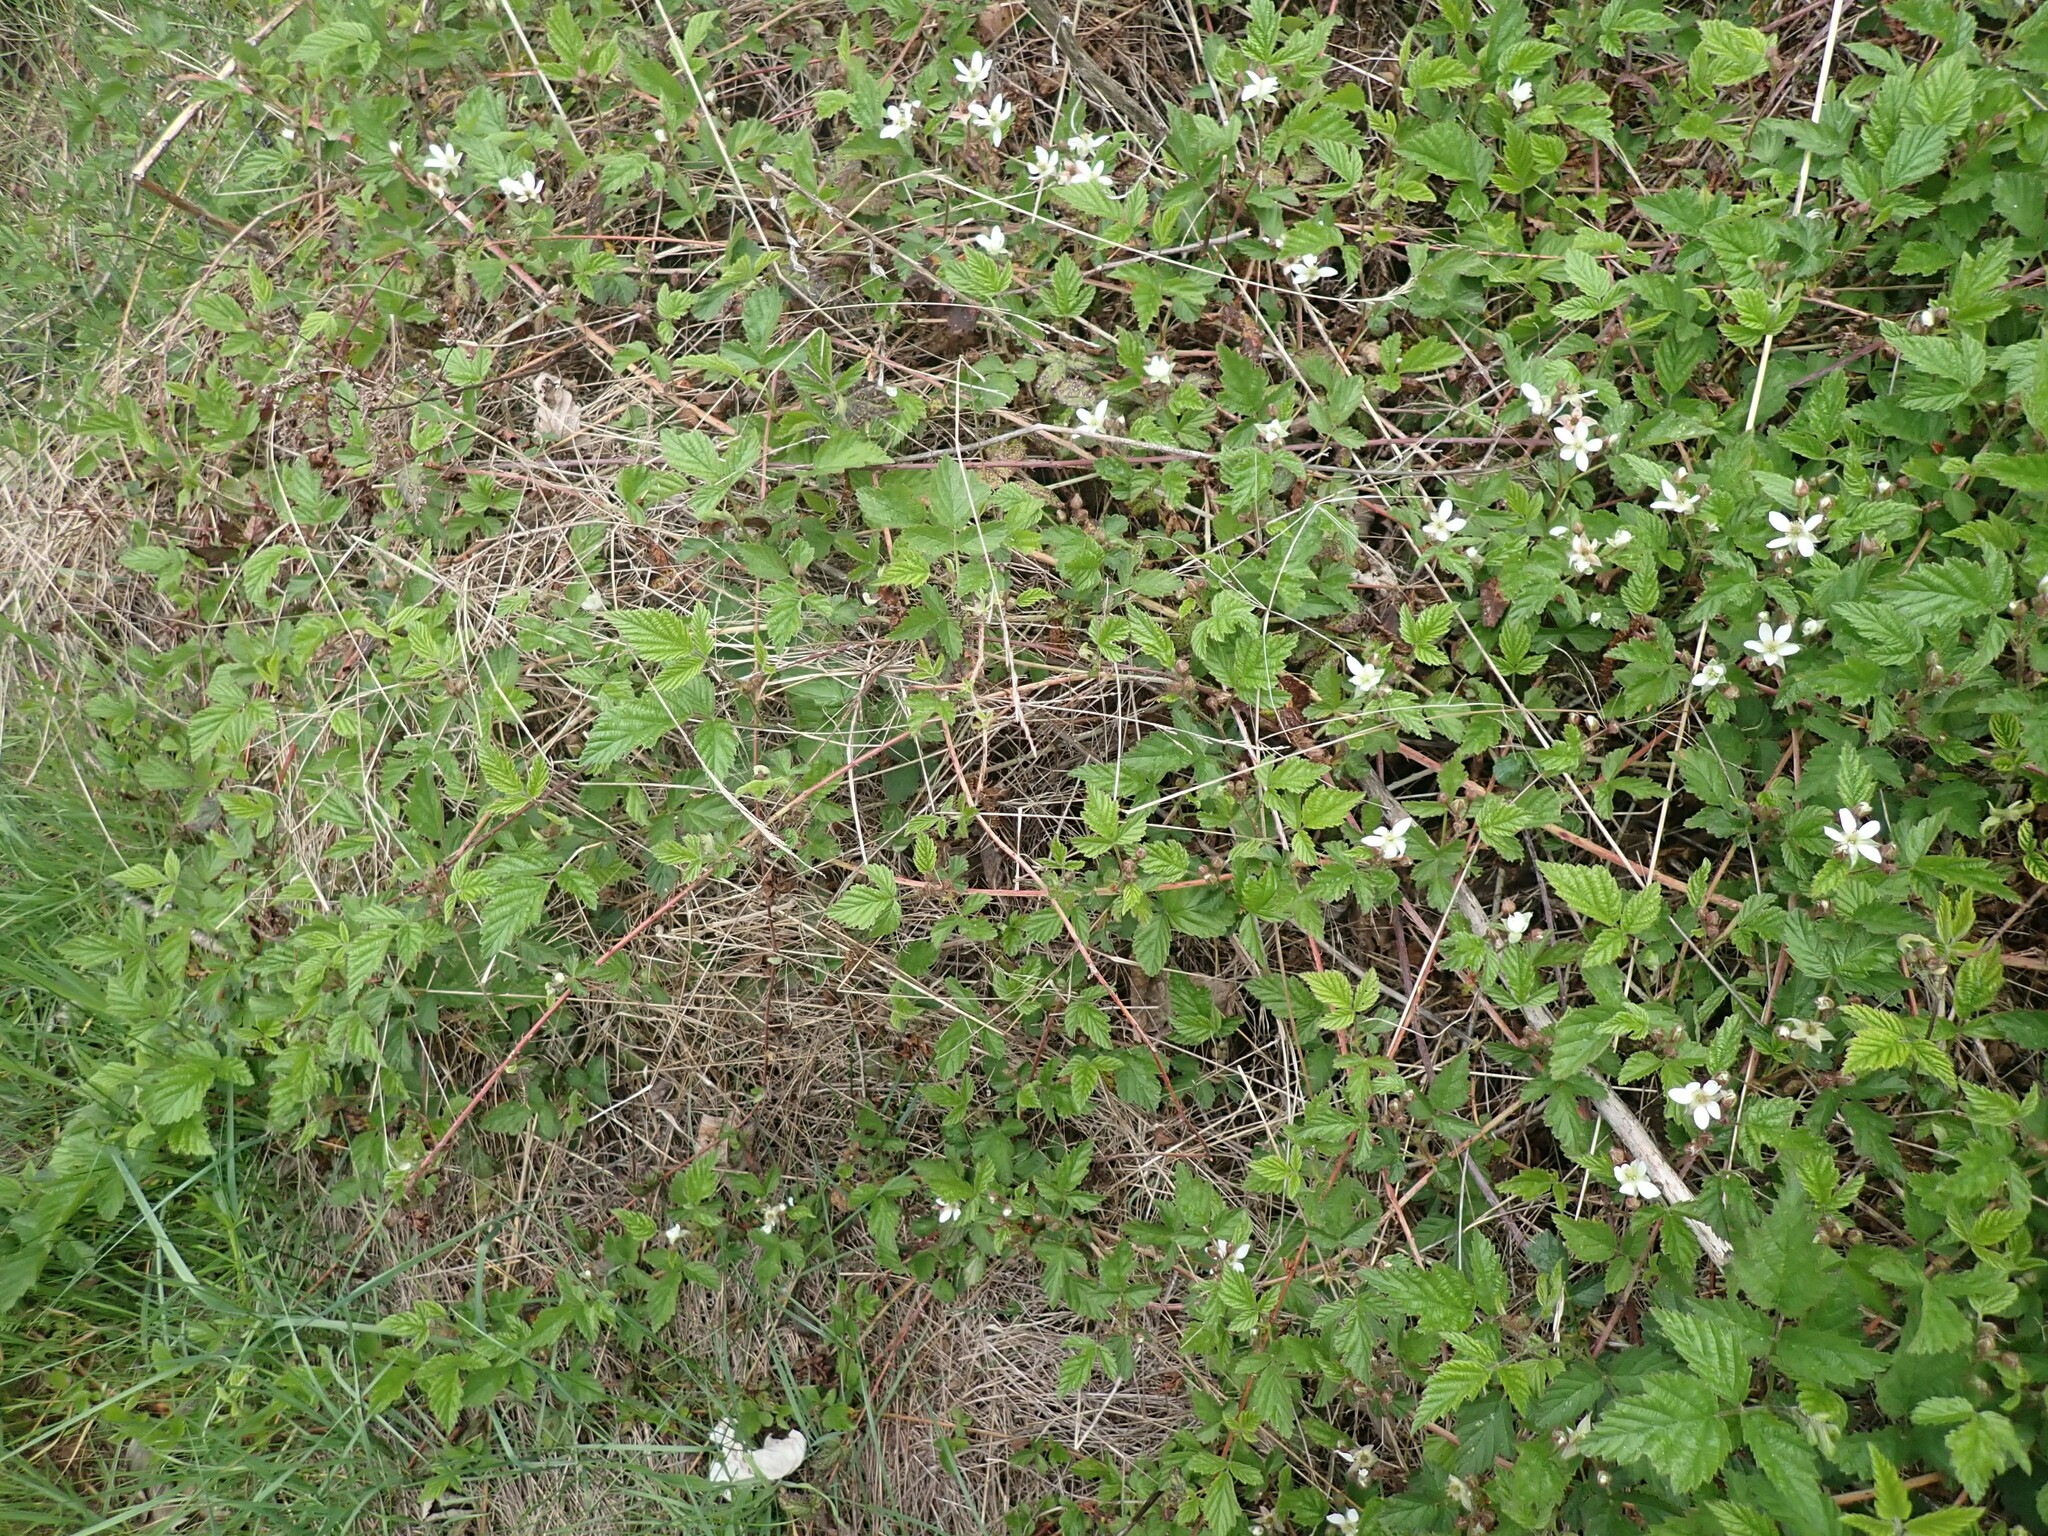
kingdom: Plantae
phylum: Tracheophyta
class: Magnoliopsida
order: Rosales
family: Rosaceae
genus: Rubus
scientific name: Rubus ursinus
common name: Pacific blackberry
